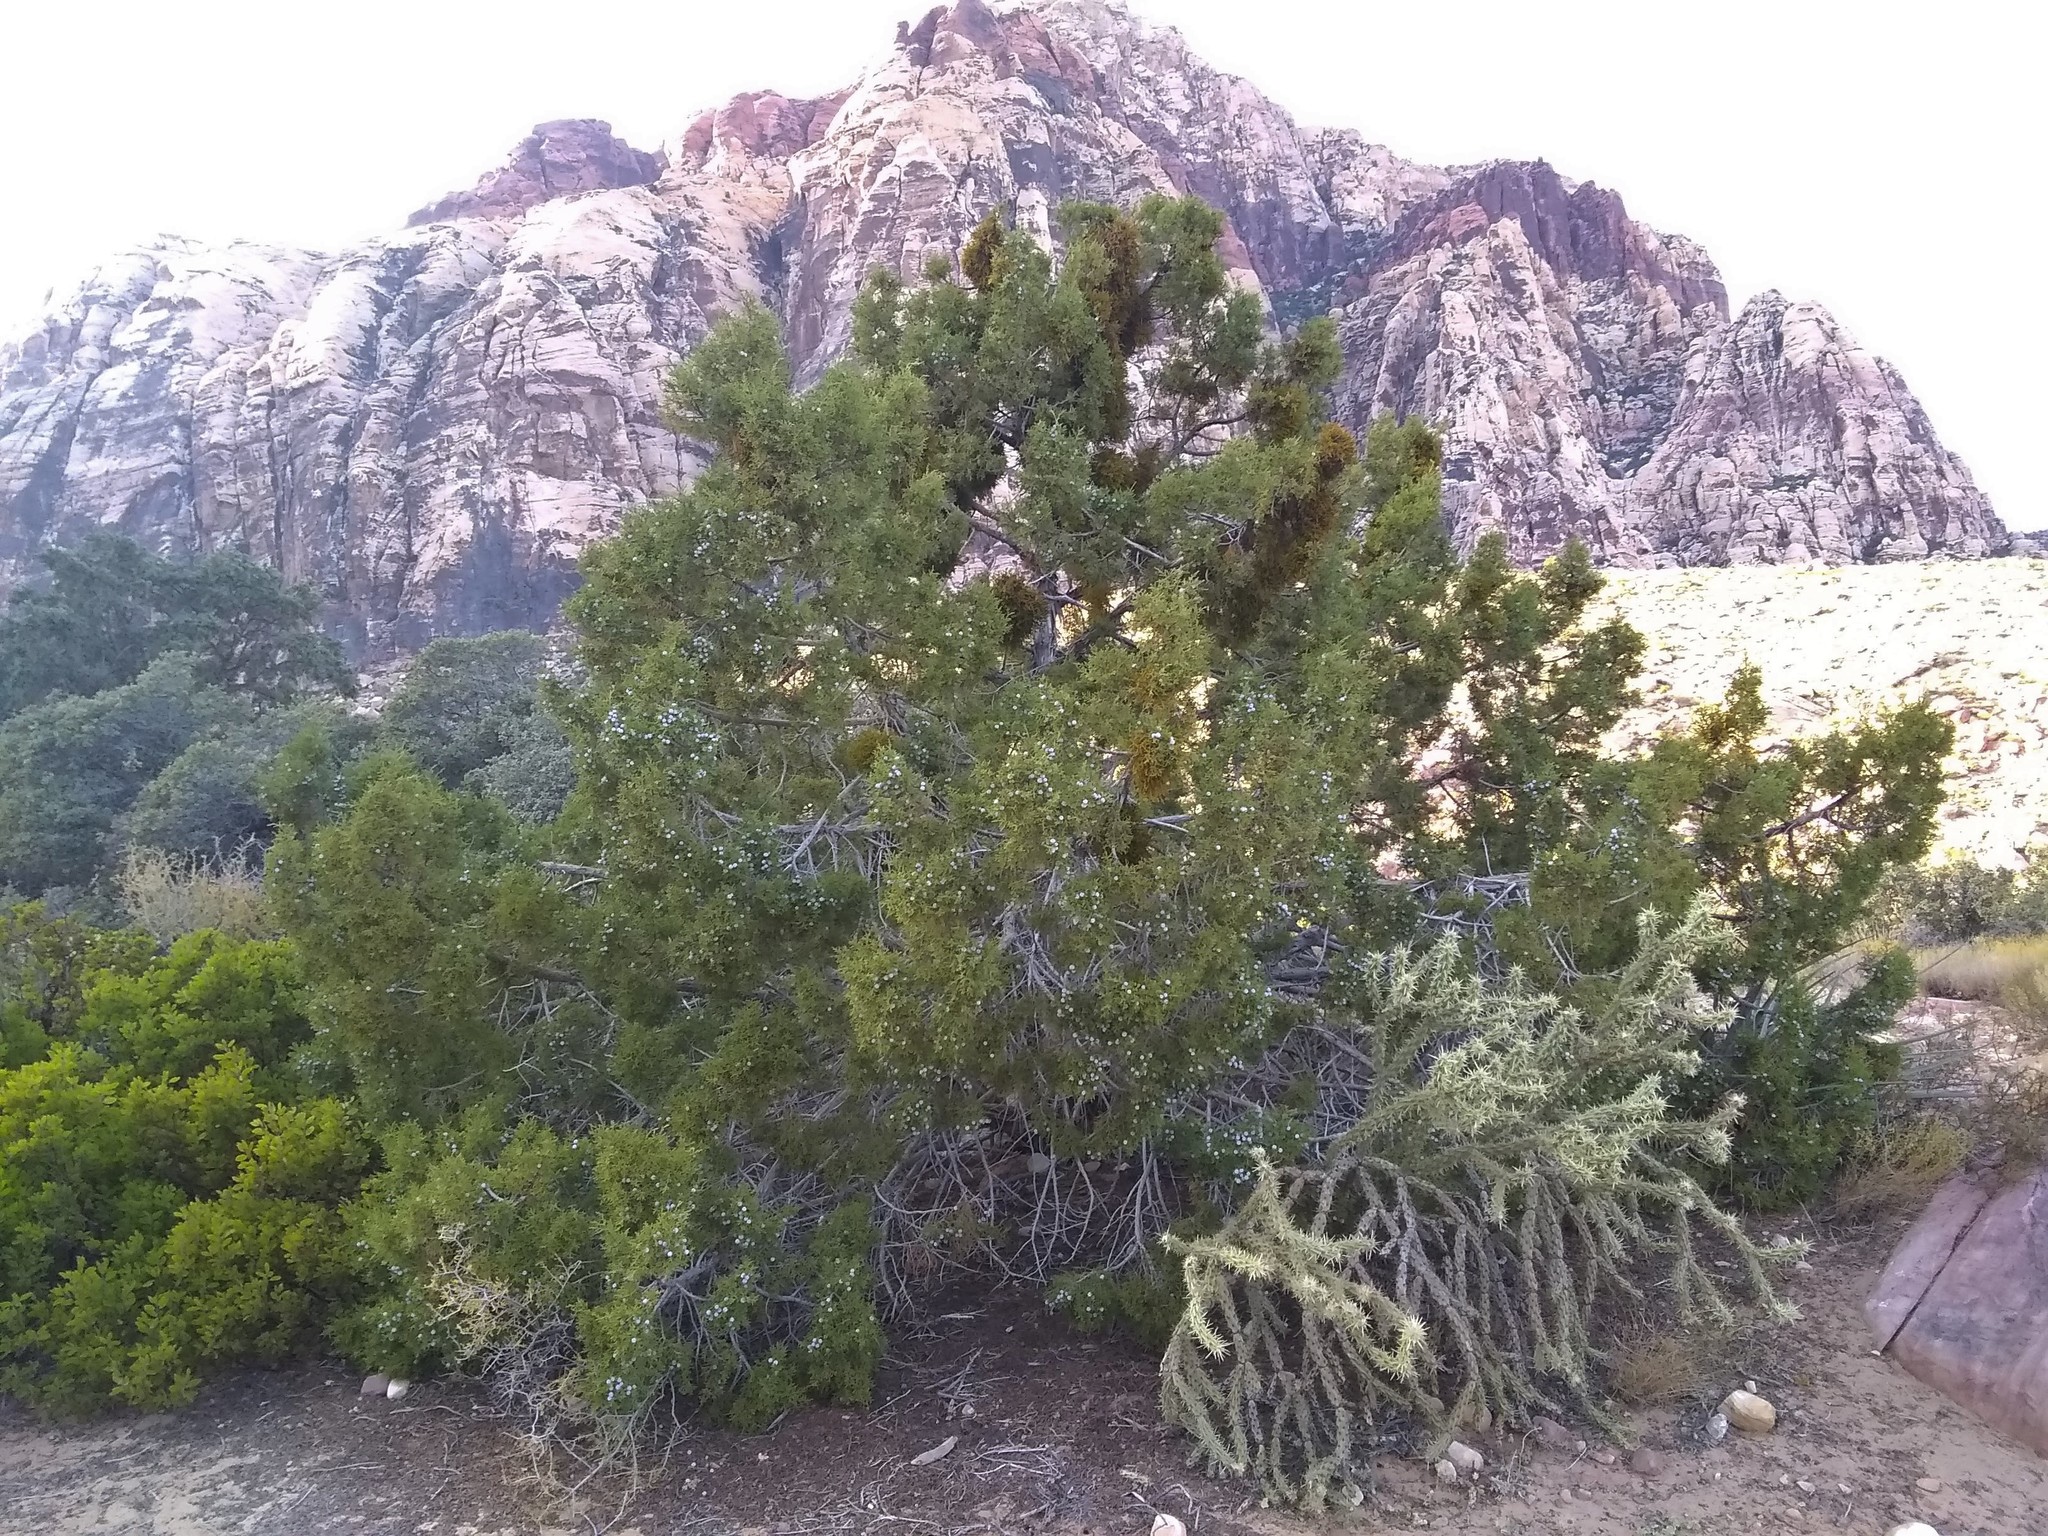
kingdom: Plantae
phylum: Tracheophyta
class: Pinopsida
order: Pinales
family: Cupressaceae
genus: Juniperus
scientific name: Juniperus osteosperma
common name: Utah juniper
